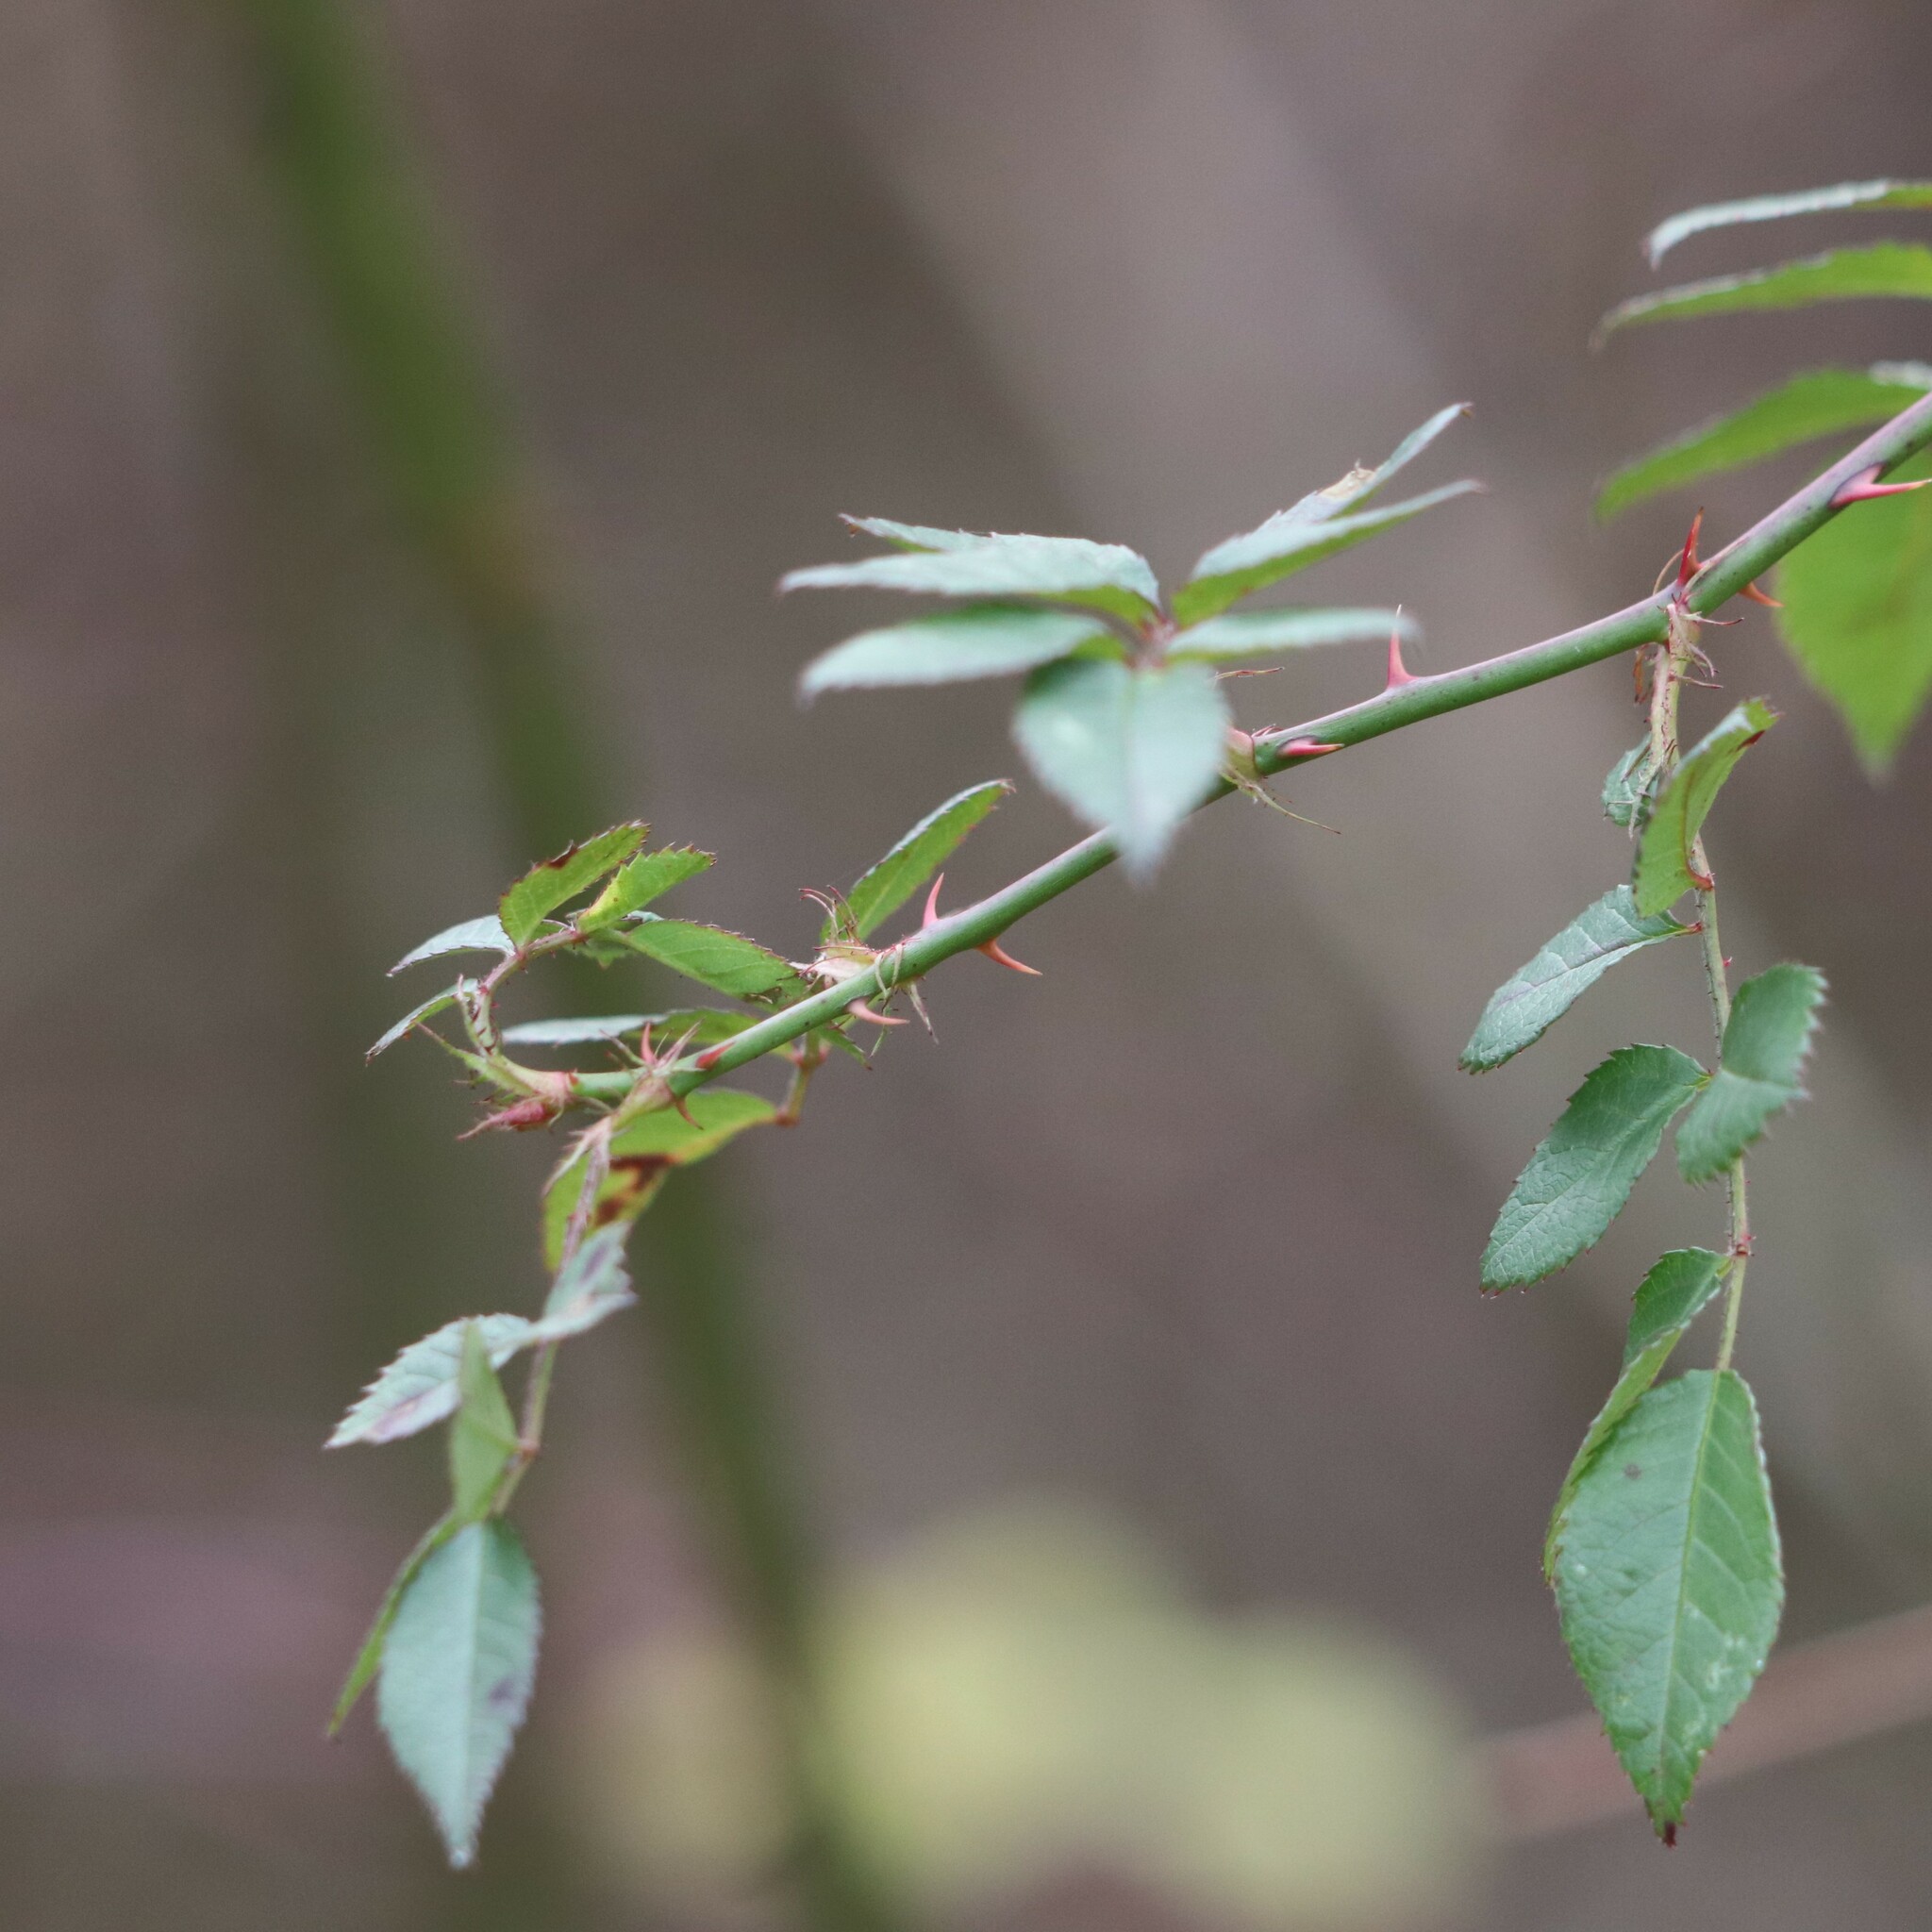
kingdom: Plantae
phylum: Tracheophyta
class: Magnoliopsida
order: Rosales
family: Rosaceae
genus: Rosa
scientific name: Rosa multiflora
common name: Multiflora rose
